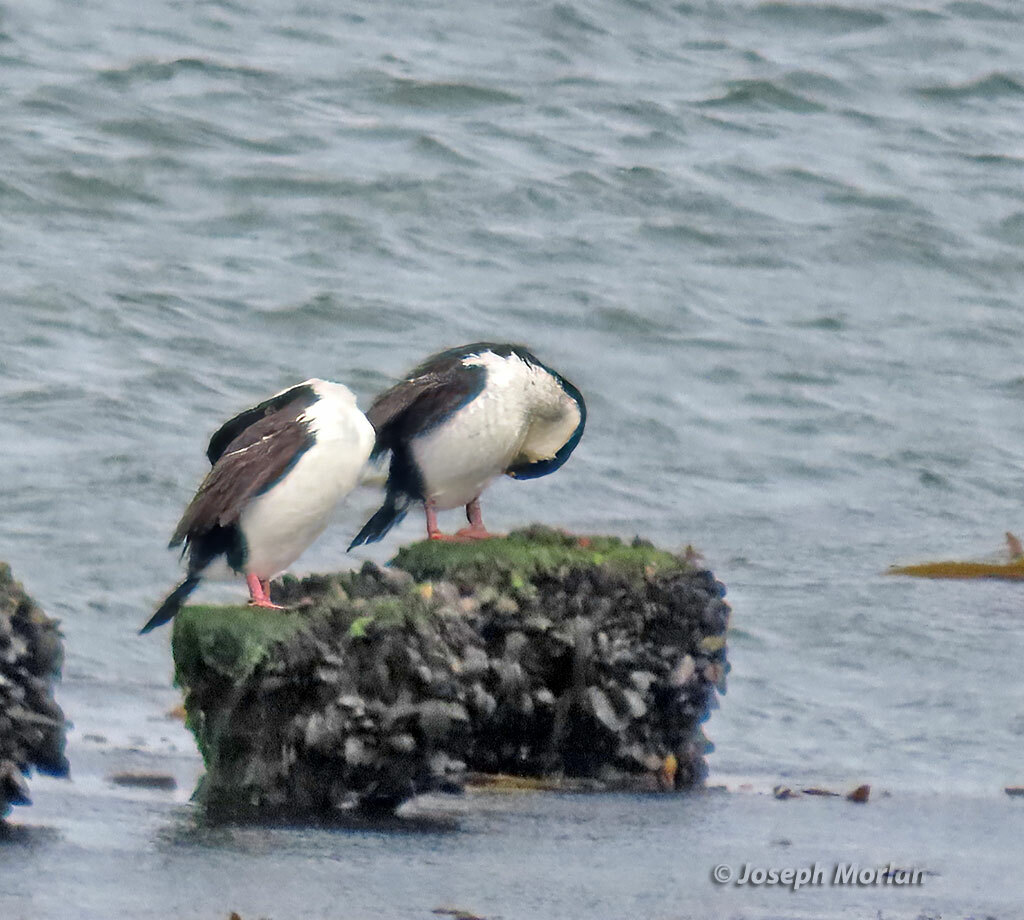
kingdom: Animalia
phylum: Chordata
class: Aves
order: Suliformes
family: Phalacrocoracidae
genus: Leucocarbo
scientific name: Leucocarbo atriceps
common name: Imperial shag
